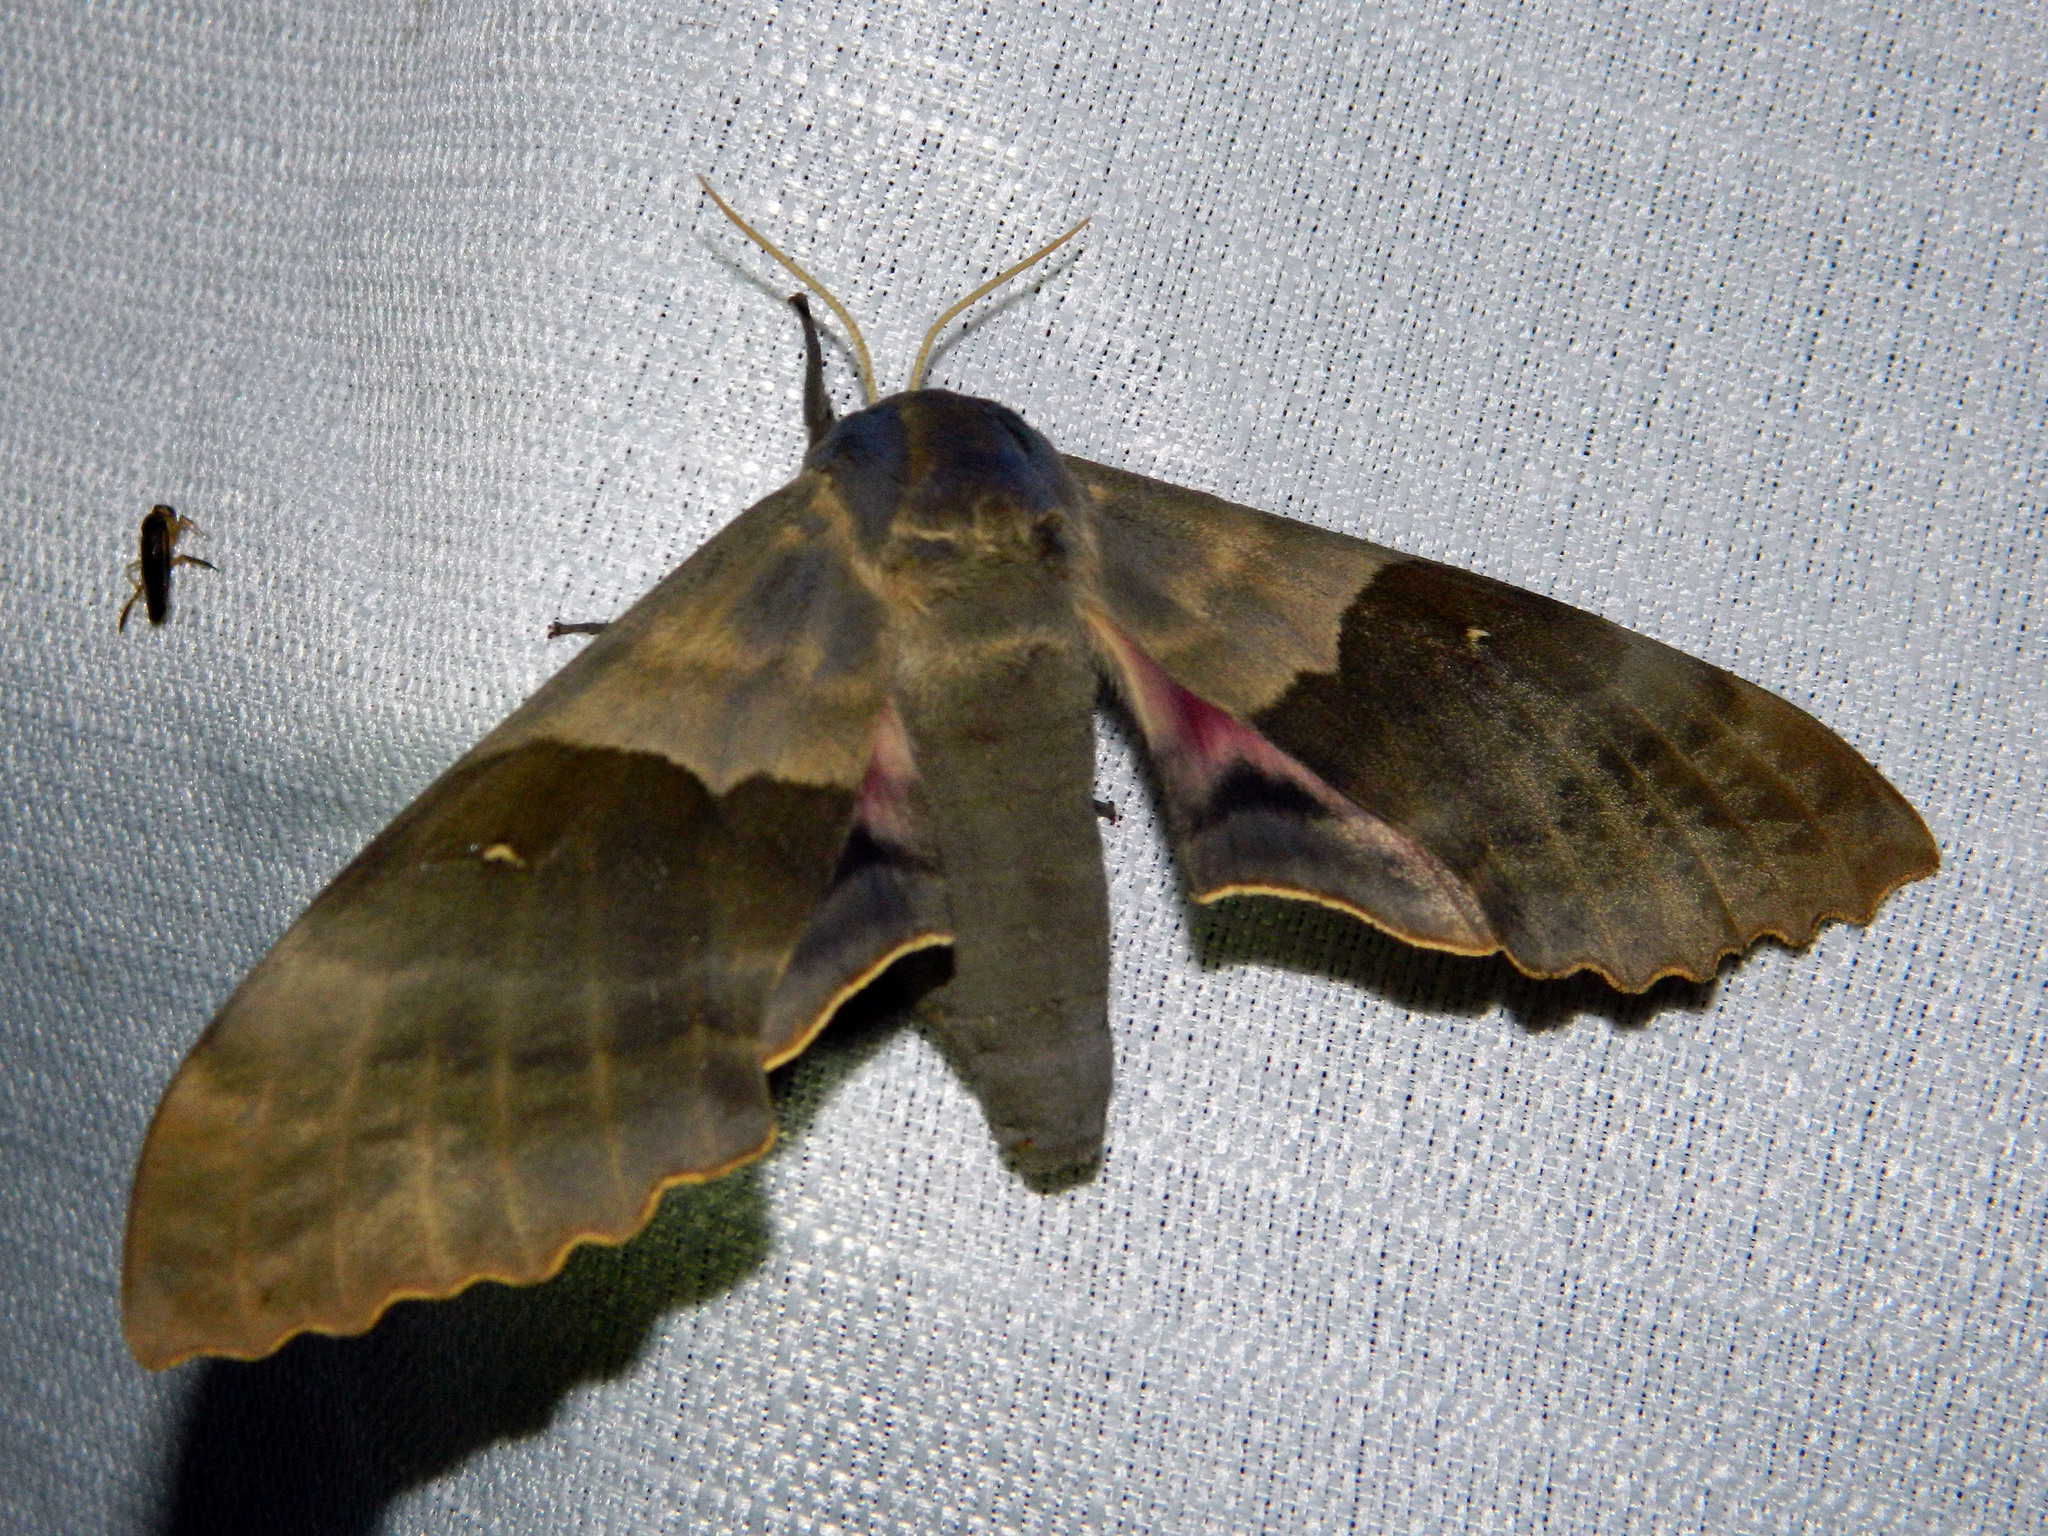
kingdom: Animalia
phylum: Arthropoda
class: Insecta
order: Lepidoptera
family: Sphingidae
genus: Pachysphinx
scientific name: Pachysphinx modesta
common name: Big poplar sphinx
